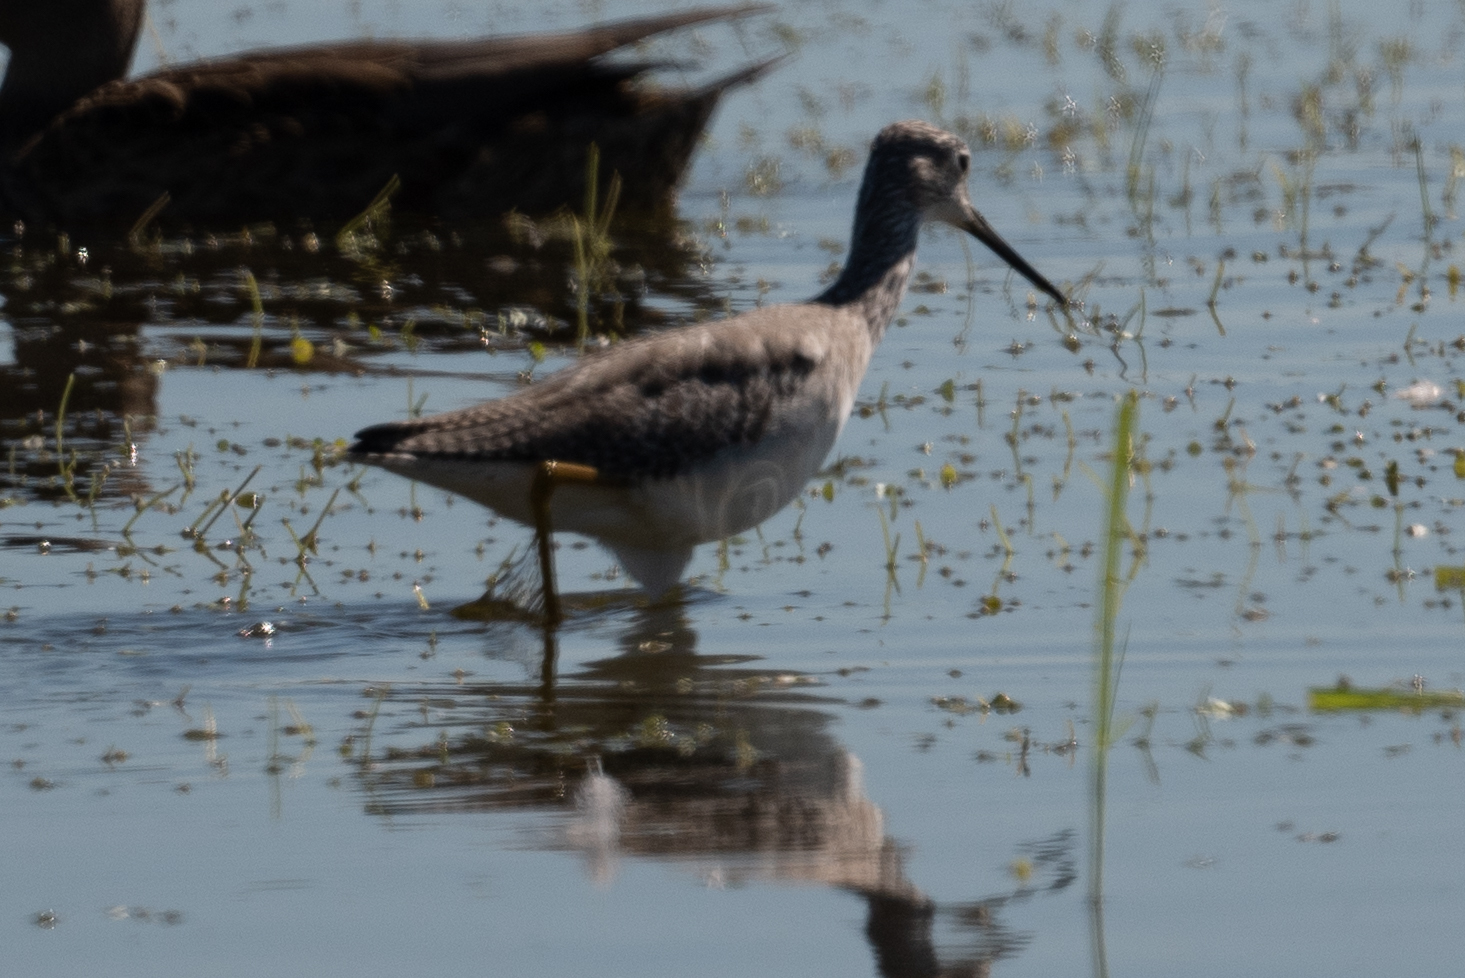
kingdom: Animalia
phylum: Chordata
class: Aves
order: Charadriiformes
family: Scolopacidae
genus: Tringa
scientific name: Tringa melanoleuca
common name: Greater yellowlegs
